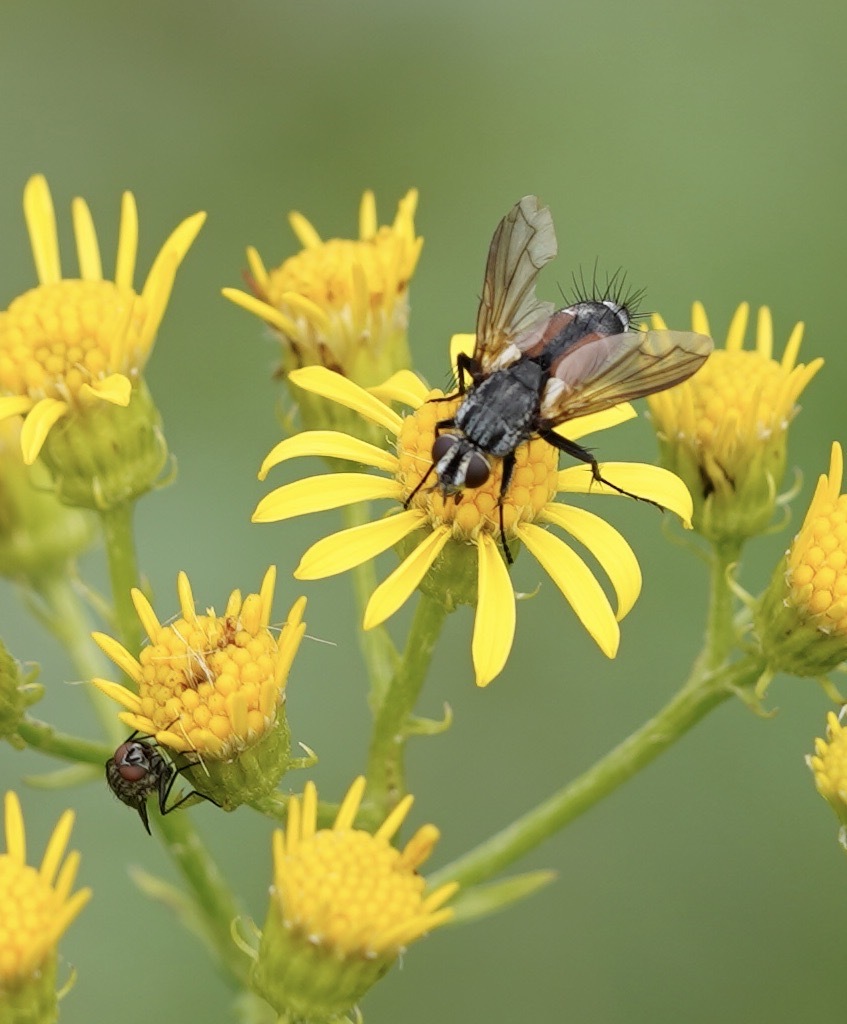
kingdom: Animalia
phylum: Arthropoda
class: Insecta
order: Diptera
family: Tachinidae
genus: Eriothrix
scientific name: Eriothrix rufomaculatus
